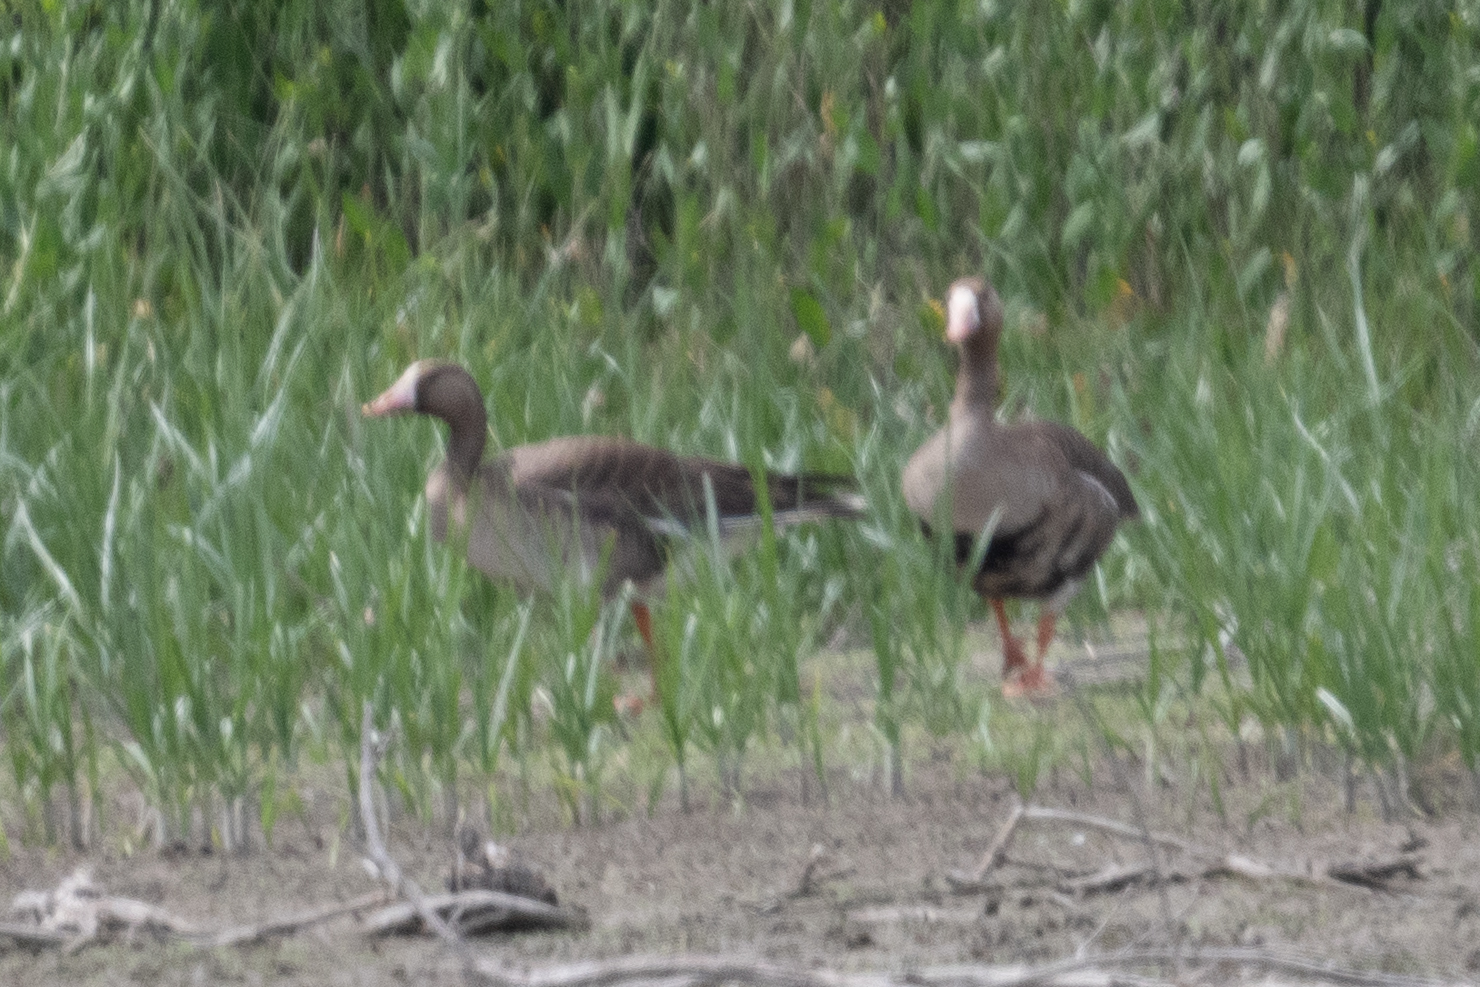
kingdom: Animalia
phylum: Chordata
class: Aves
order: Anseriformes
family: Anatidae
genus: Anser
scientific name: Anser albifrons
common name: Greater white-fronted goose
